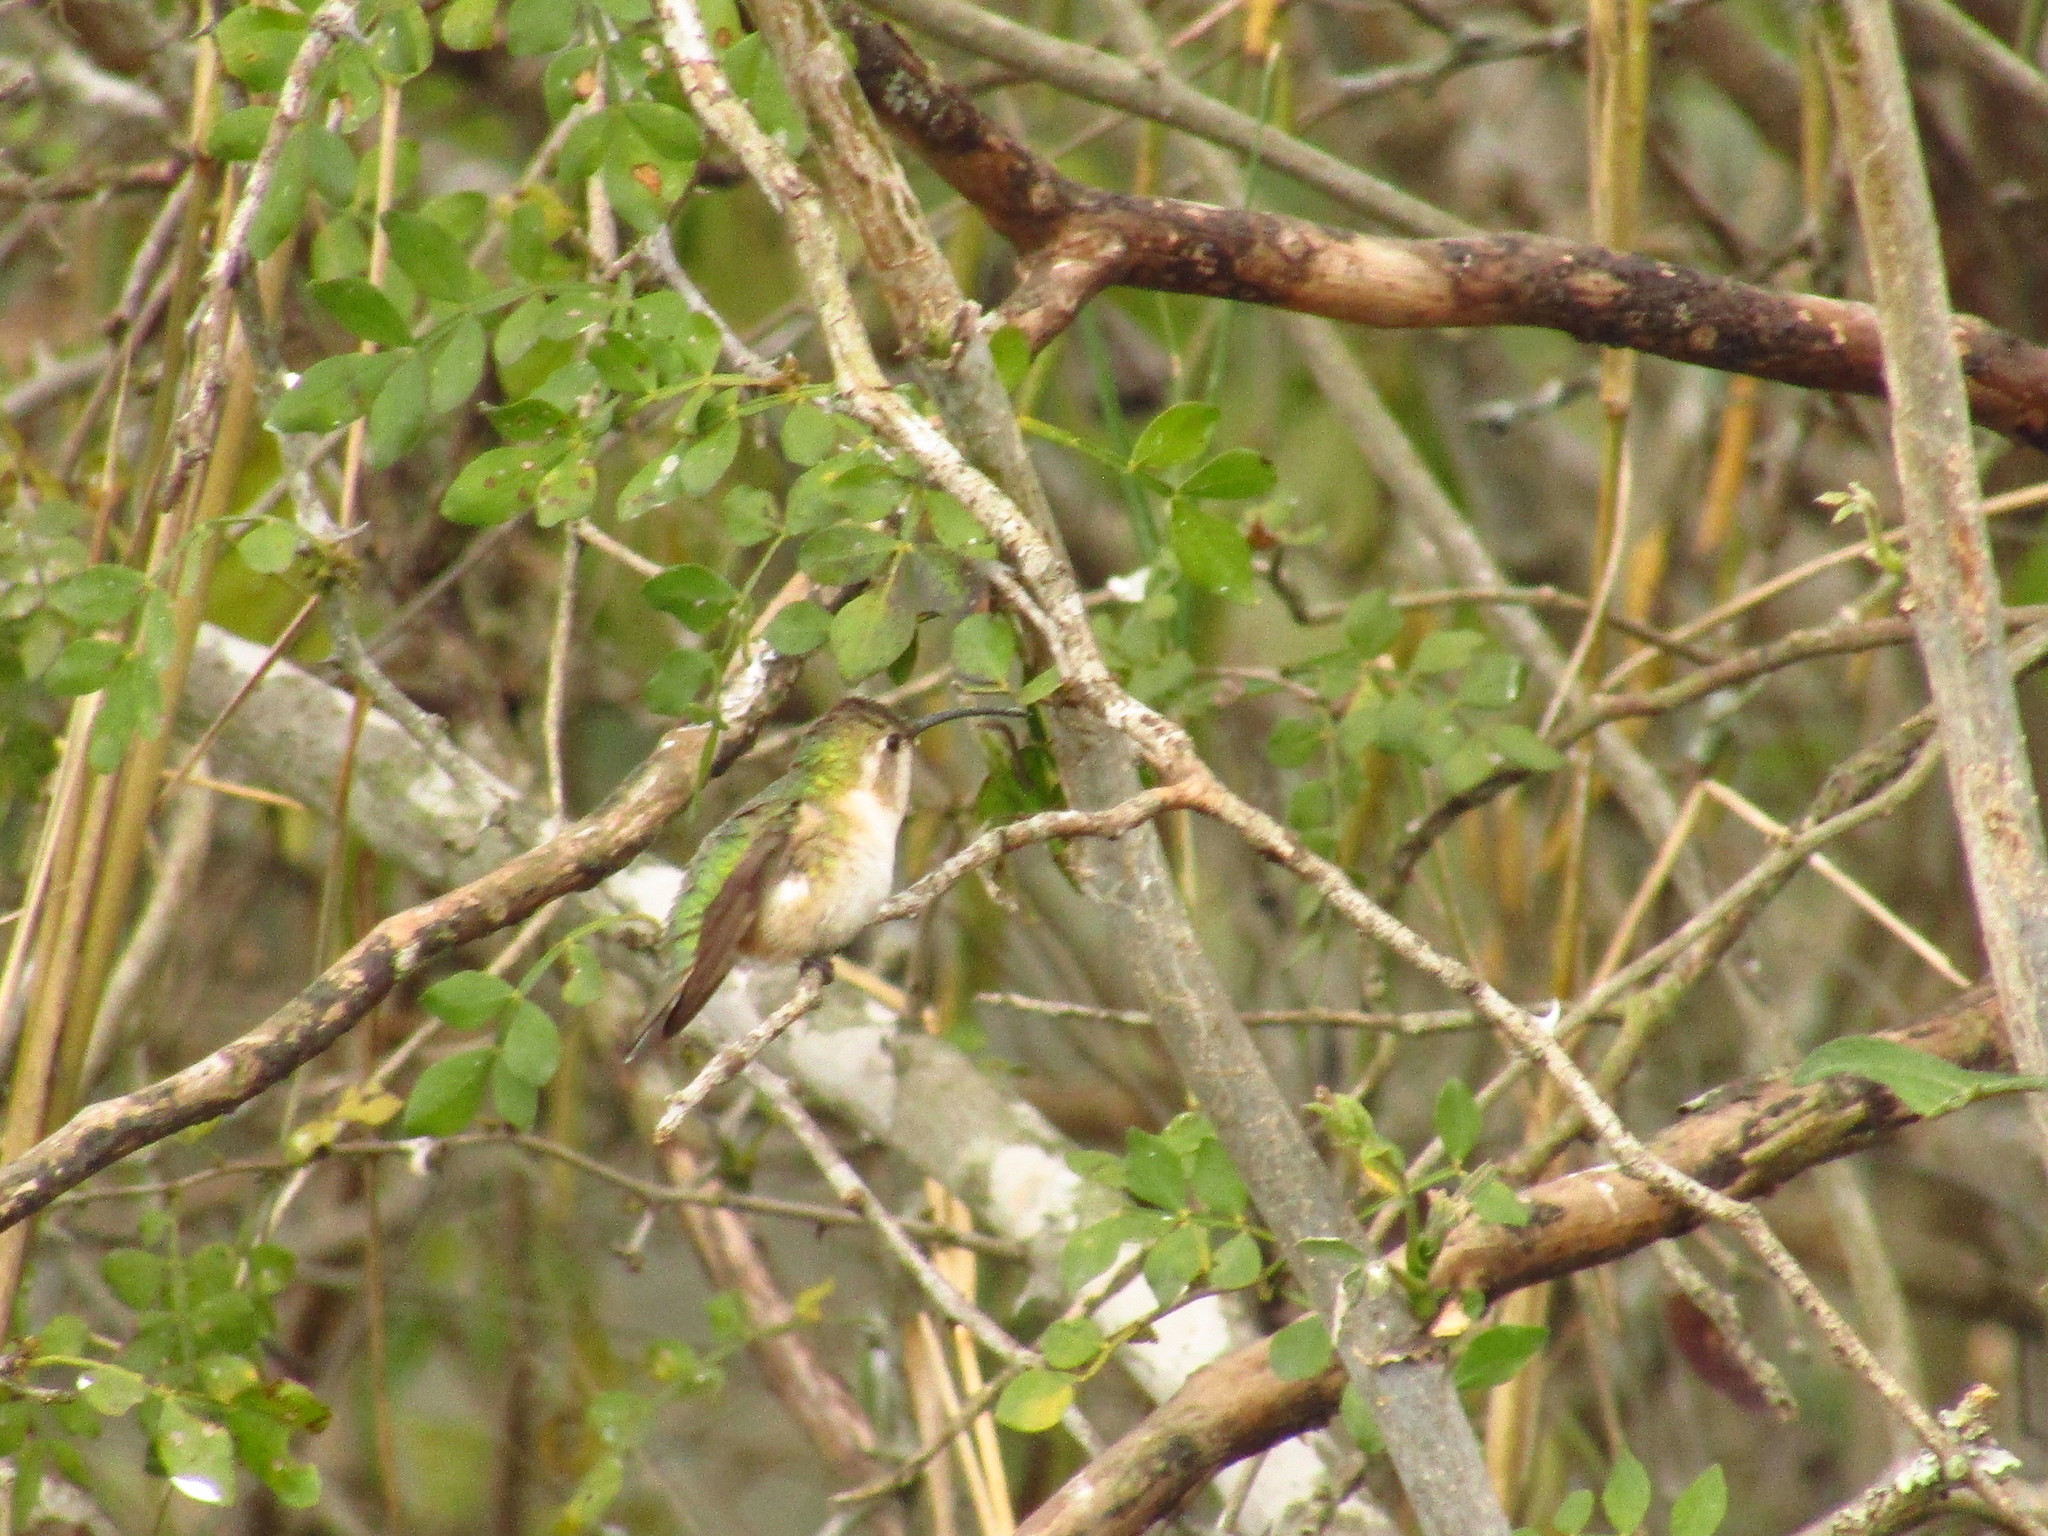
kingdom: Animalia
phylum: Chordata
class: Aves
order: Apodiformes
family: Trochilidae
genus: Doricha
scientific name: Doricha eliza
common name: Mexican sheartail
